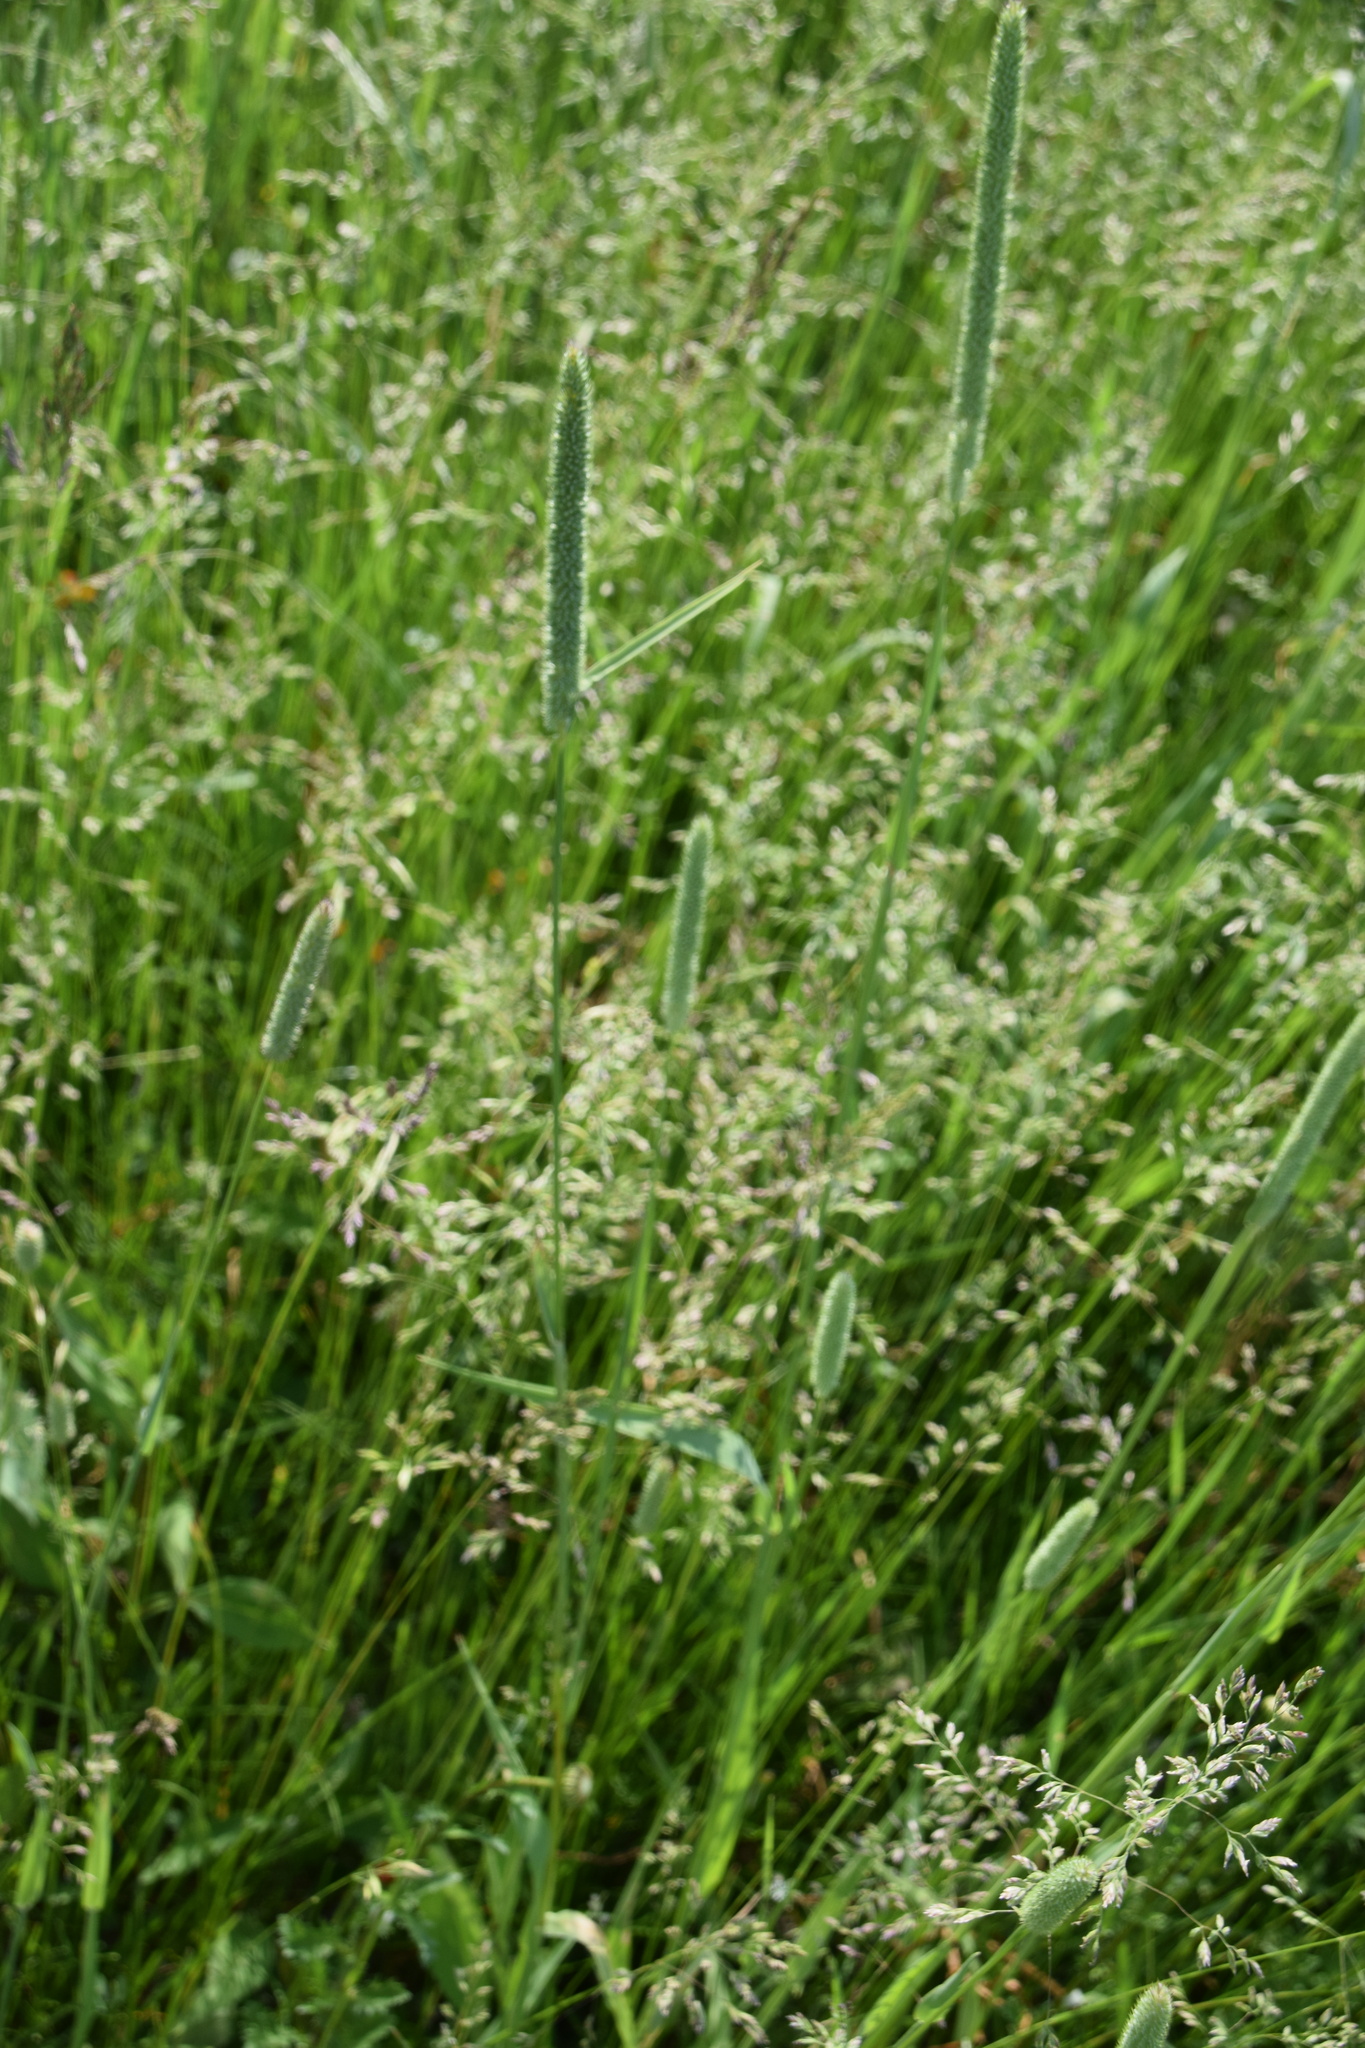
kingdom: Plantae
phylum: Tracheophyta
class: Liliopsida
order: Poales
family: Poaceae
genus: Phleum
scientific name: Phleum pratense
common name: Timothy grass
